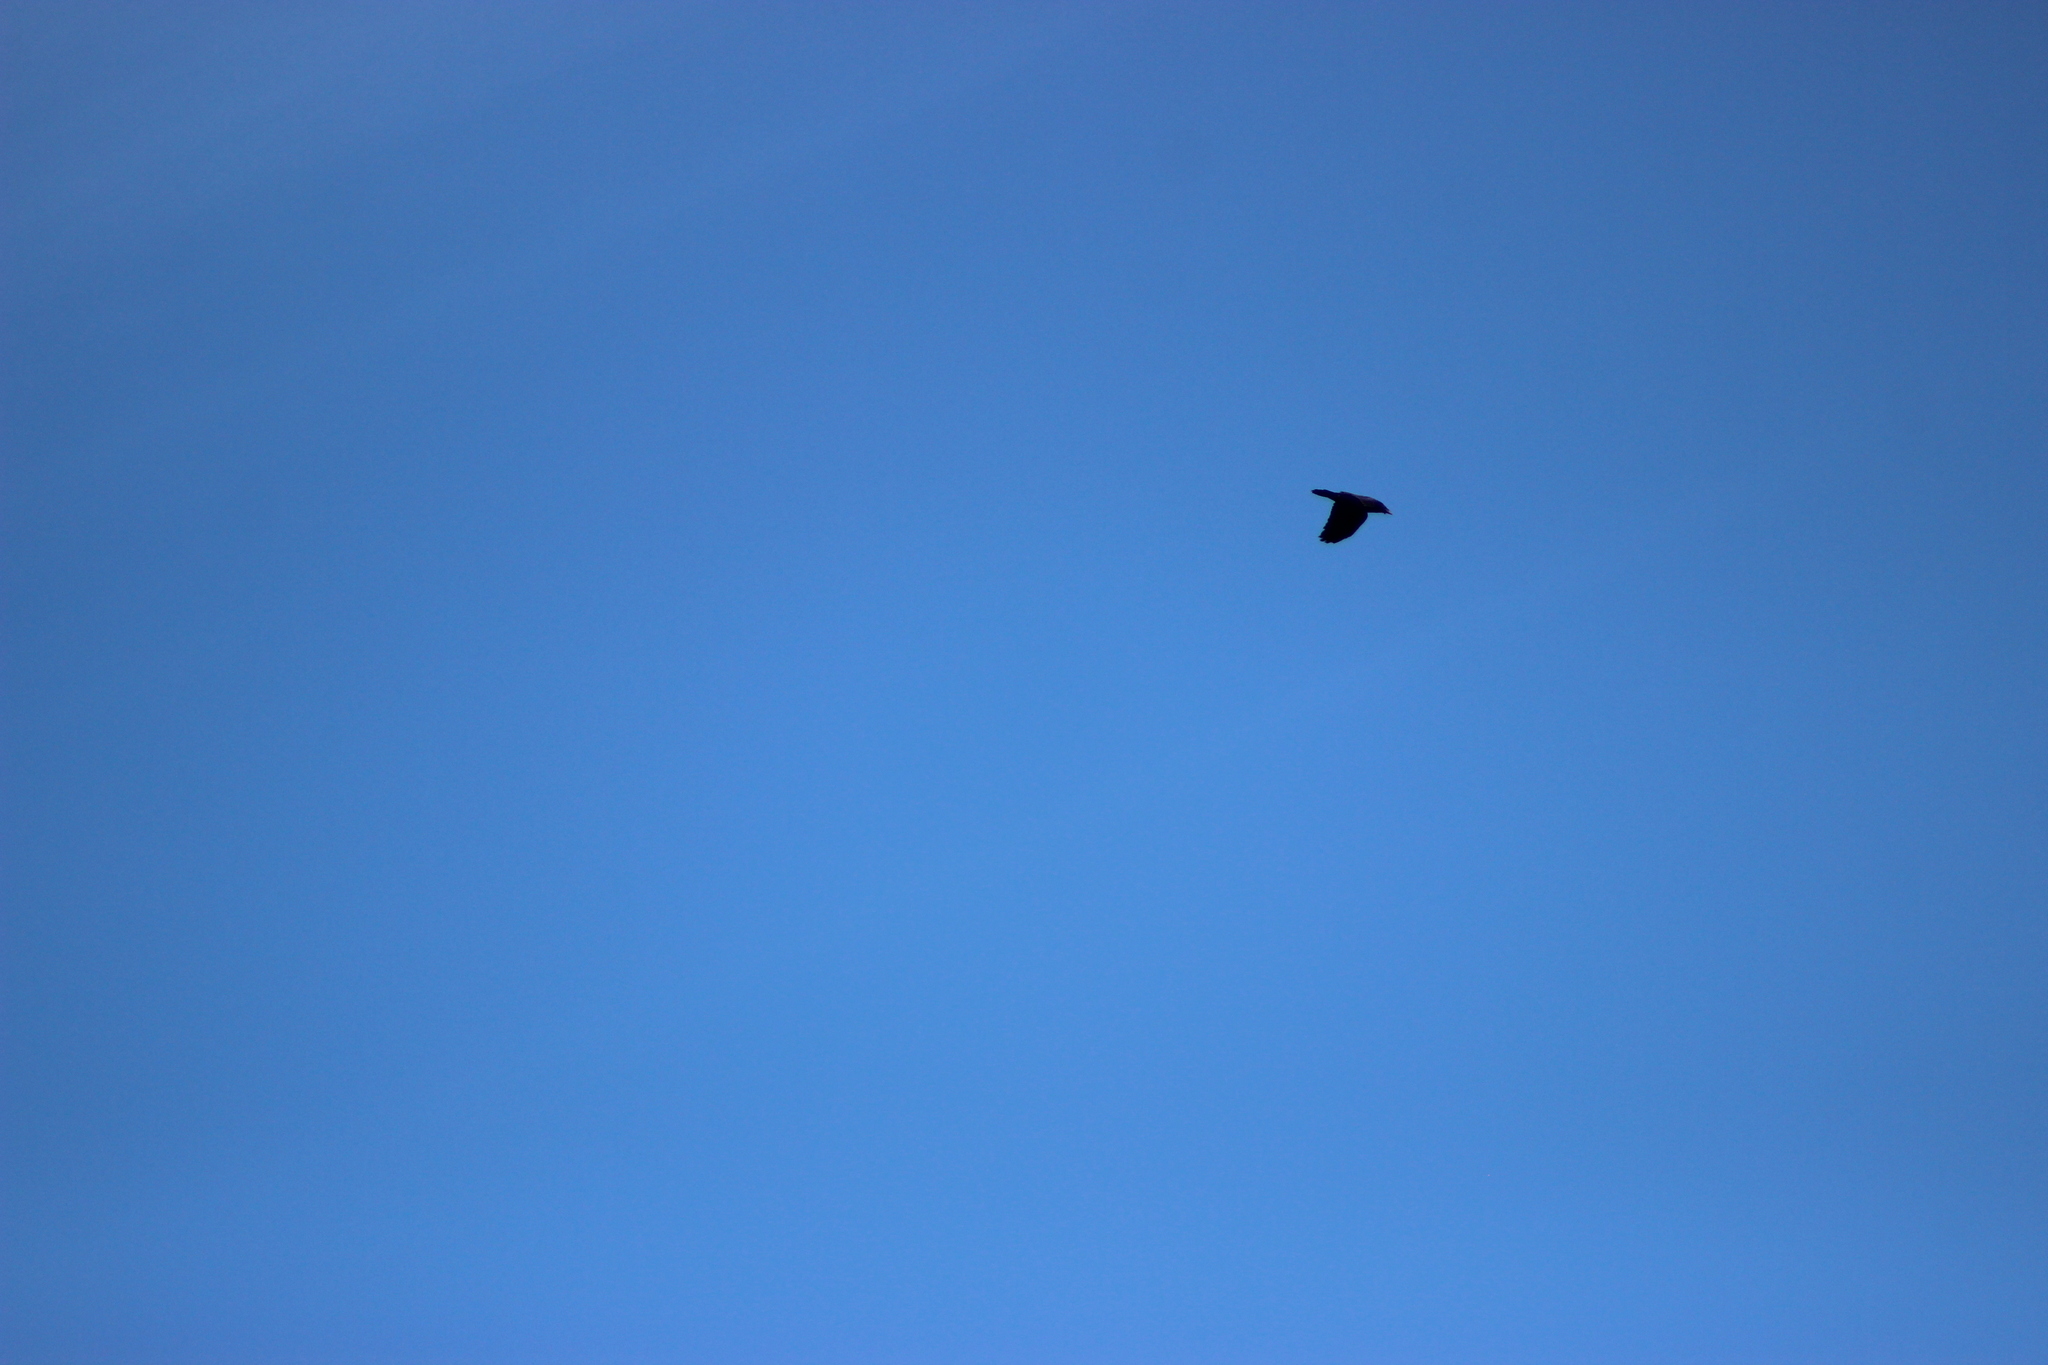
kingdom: Animalia
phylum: Chordata
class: Aves
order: Passeriformes
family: Corvidae
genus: Corvus
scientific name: Corvus corax
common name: Common raven
